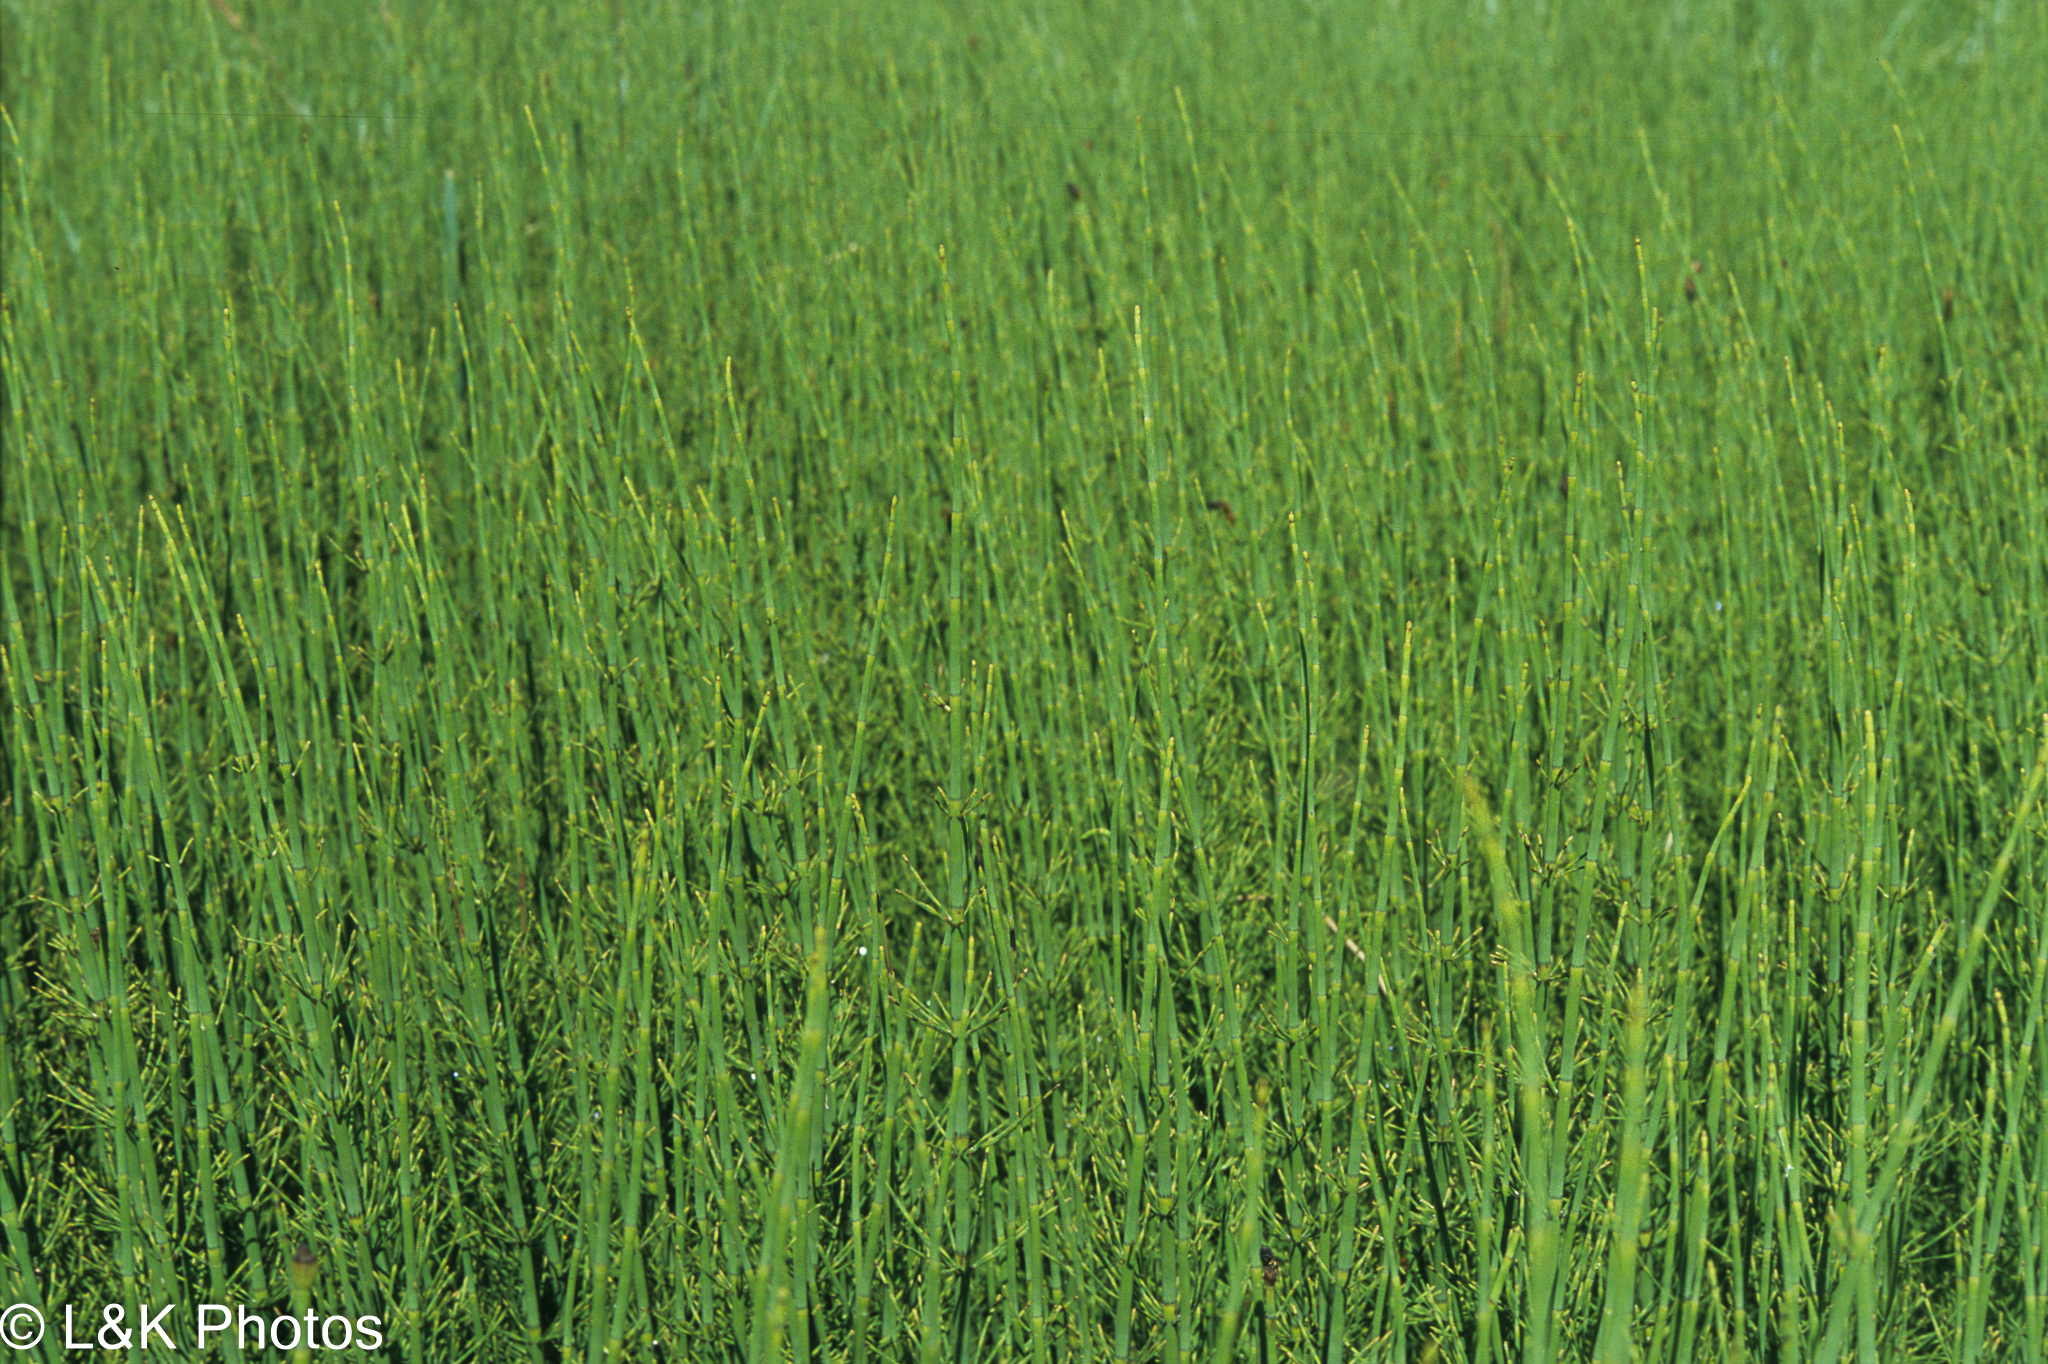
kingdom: Plantae
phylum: Tracheophyta
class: Polypodiopsida
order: Equisetales
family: Equisetaceae
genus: Equisetum
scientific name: Equisetum fluviatile
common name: Water horsetail
